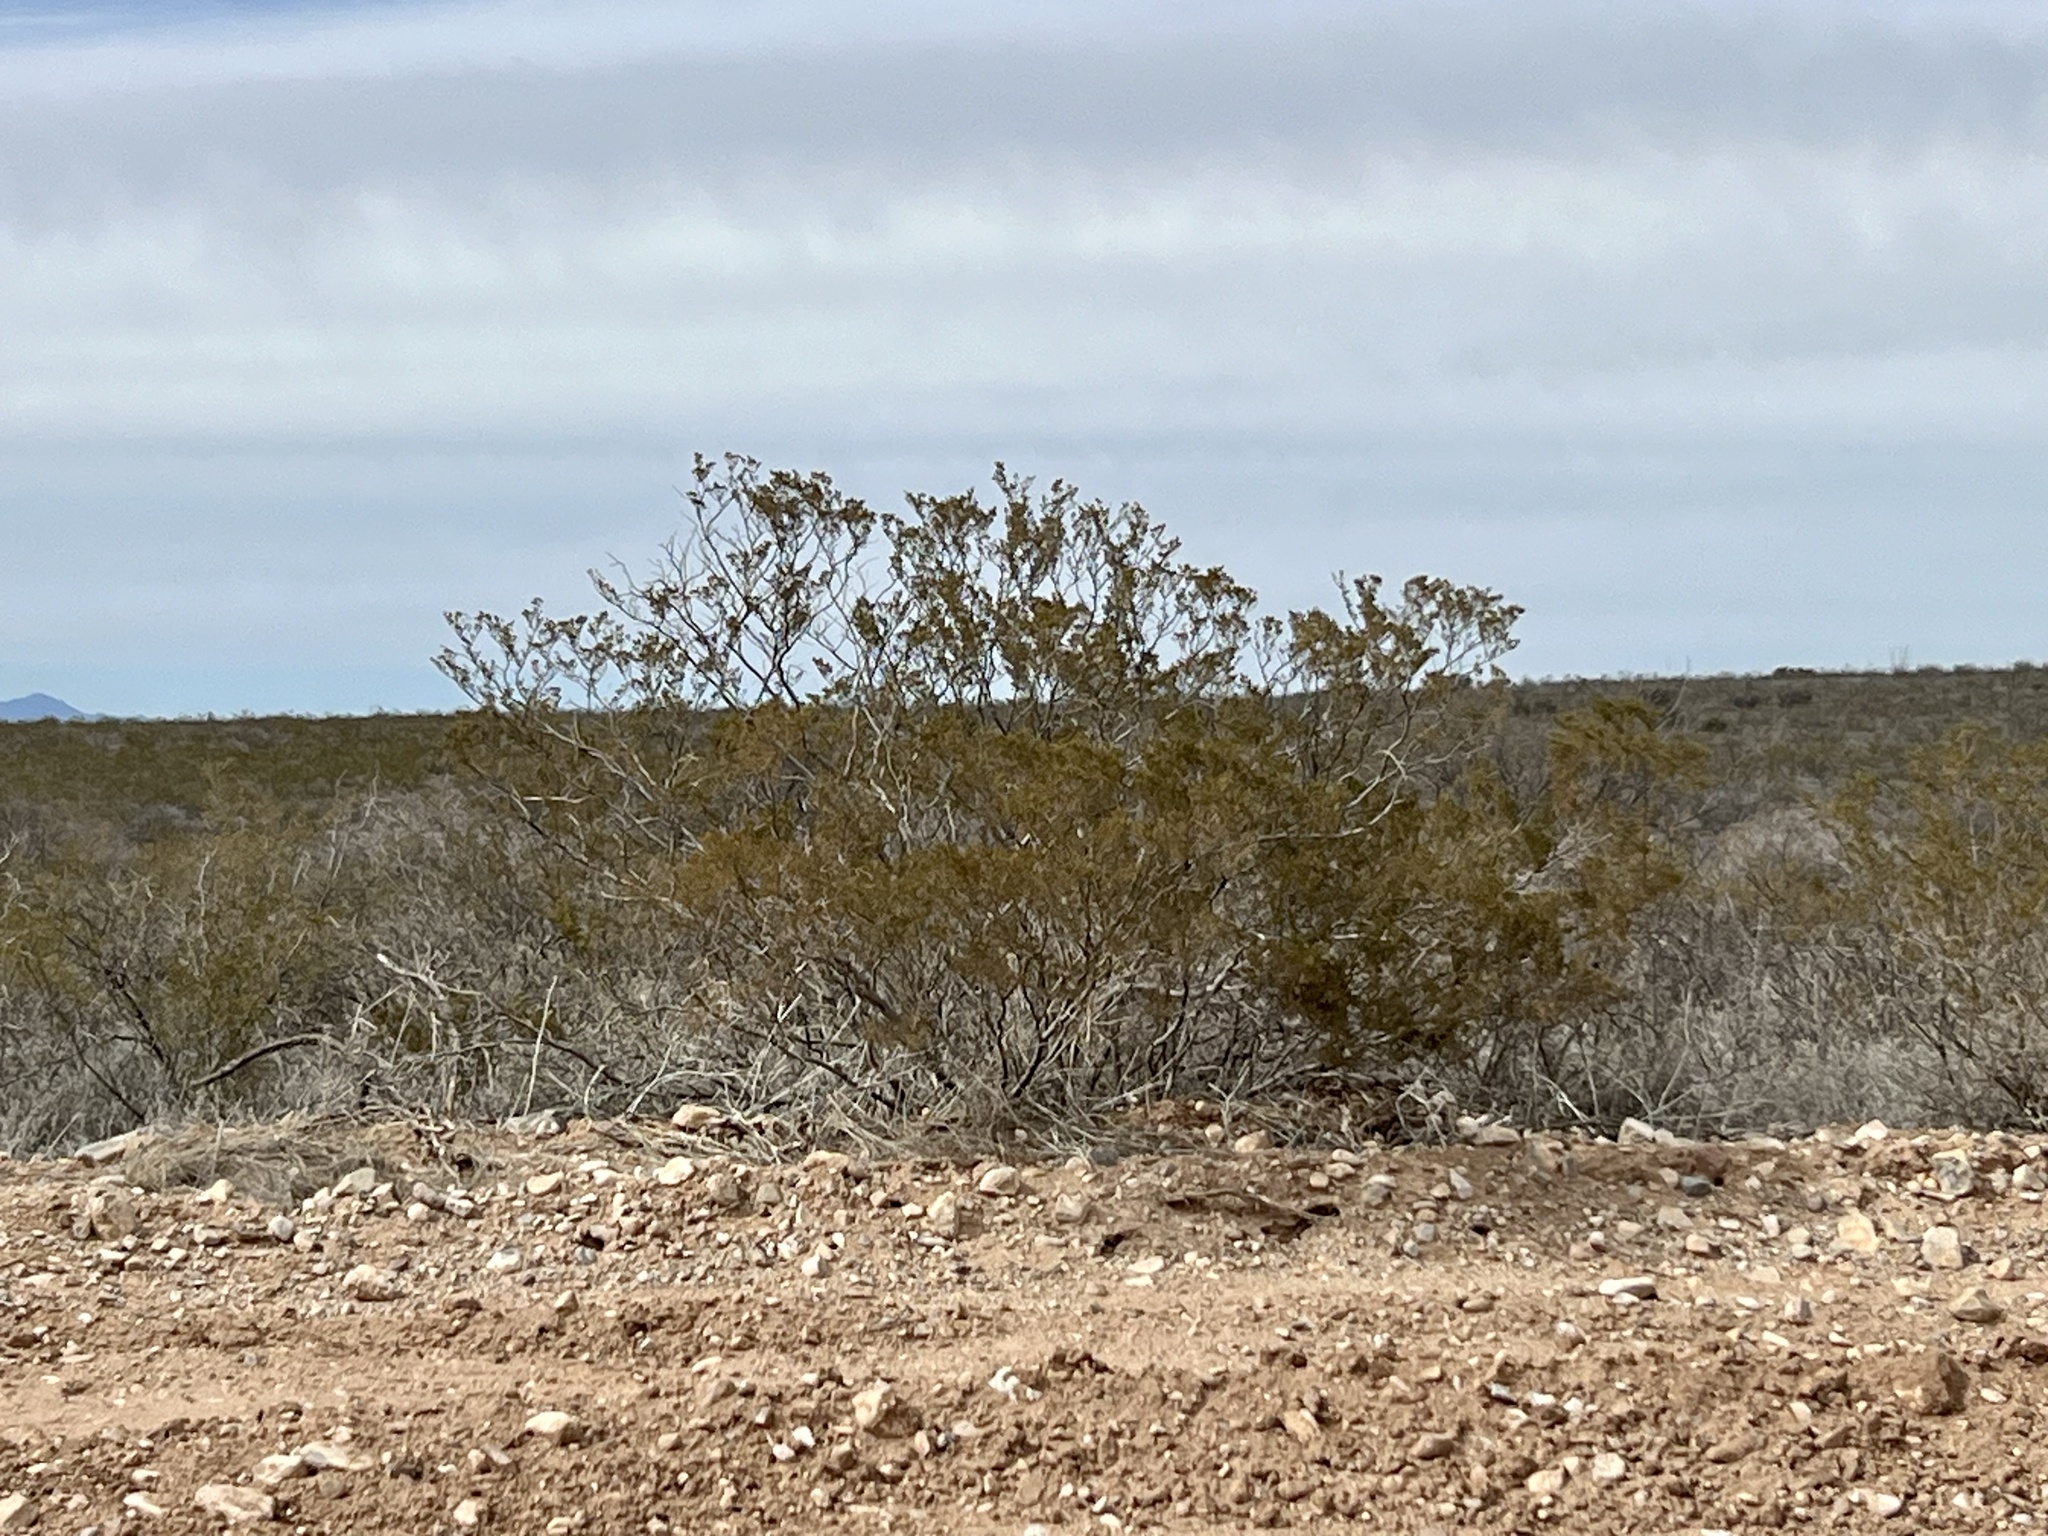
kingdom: Plantae
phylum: Tracheophyta
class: Magnoliopsida
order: Zygophyllales
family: Zygophyllaceae
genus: Larrea
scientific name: Larrea tridentata
